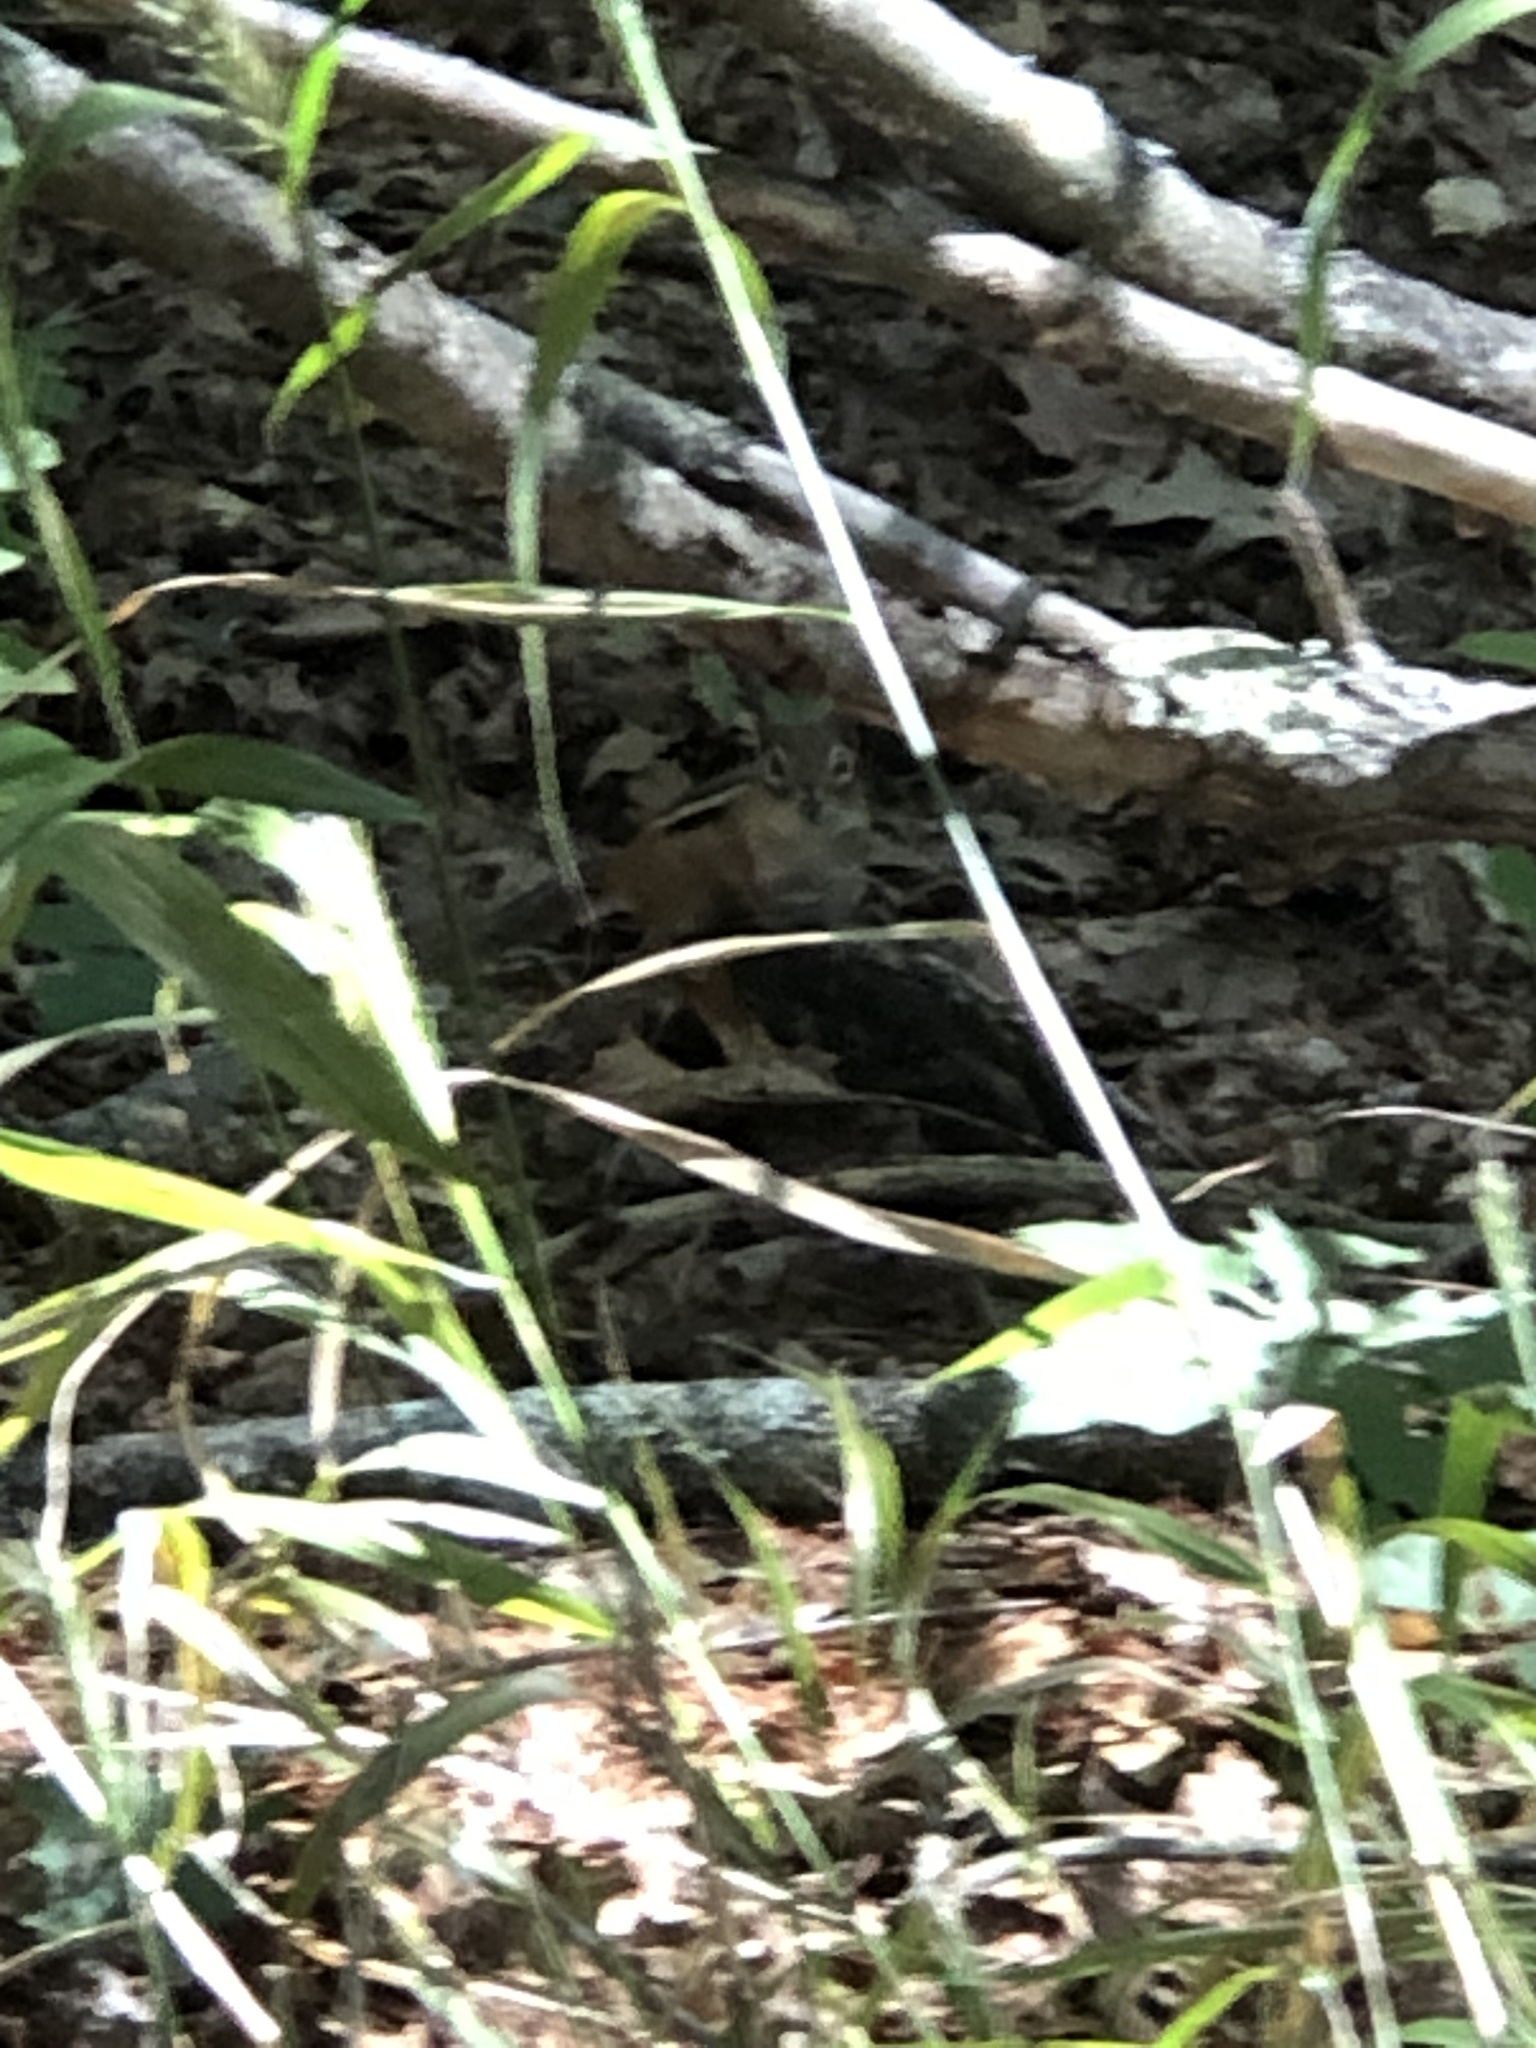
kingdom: Animalia
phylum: Chordata
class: Mammalia
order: Rodentia
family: Sciuridae
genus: Tamias
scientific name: Tamias striatus
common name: Eastern chipmunk
